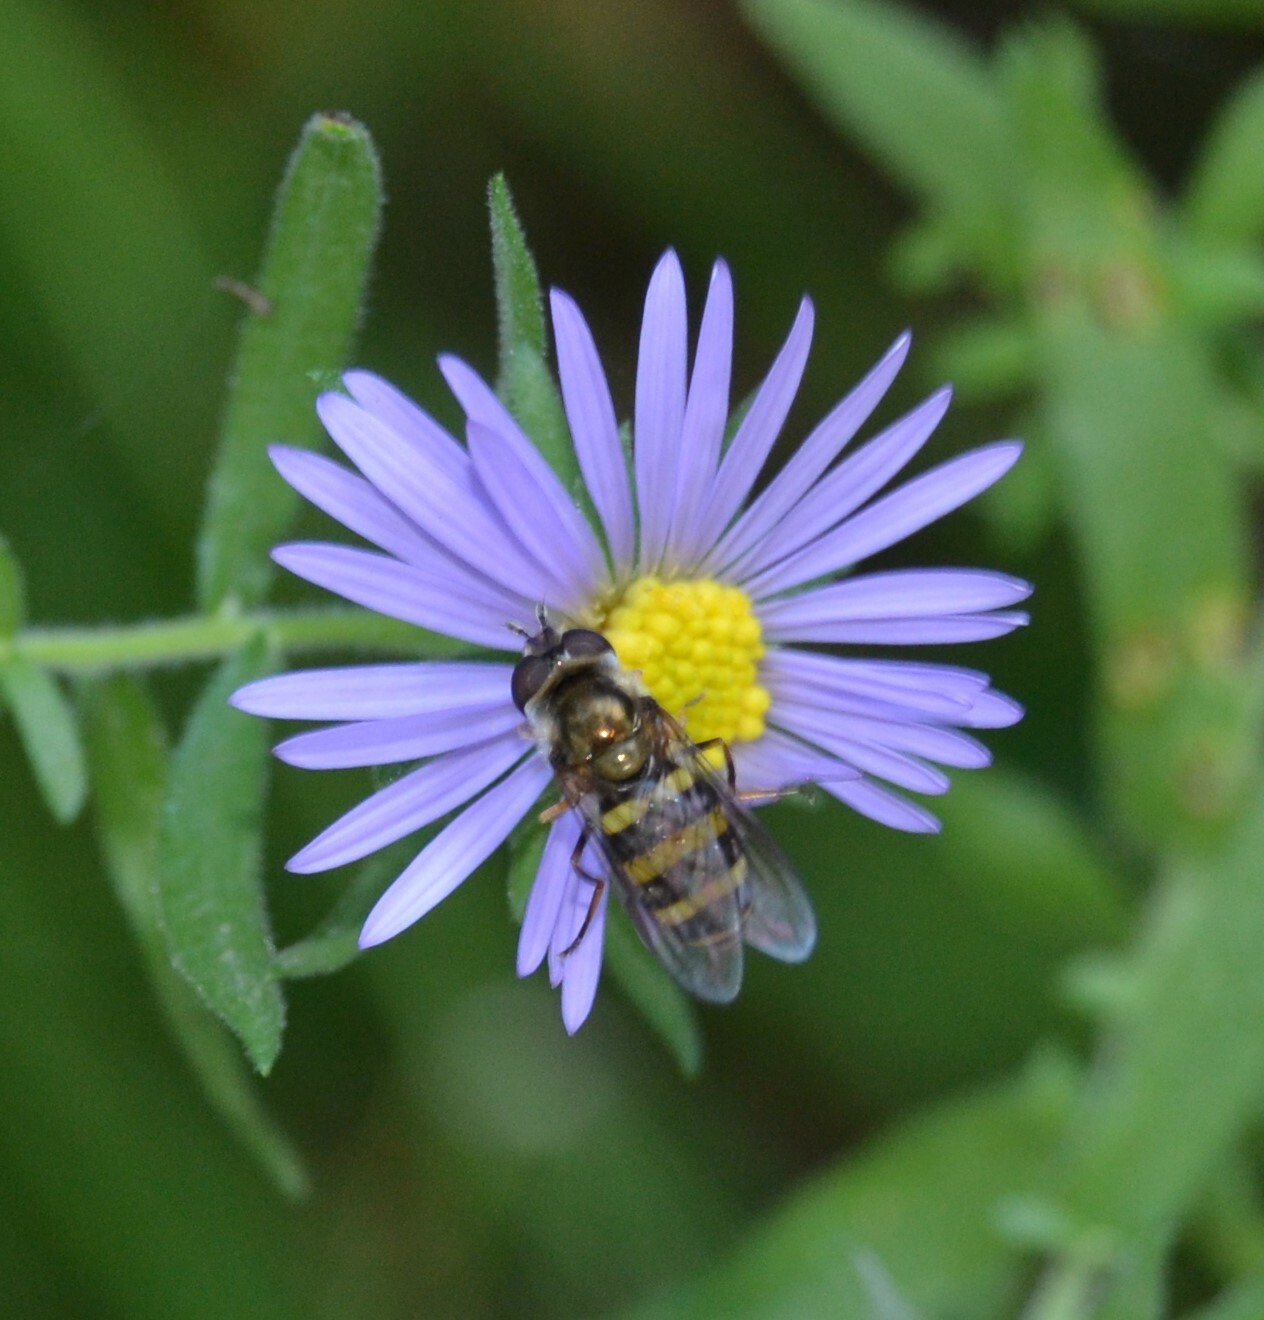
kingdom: Animalia
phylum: Arthropoda
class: Insecta
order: Diptera
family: Syrphidae
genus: Eupeodes
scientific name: Eupeodes
